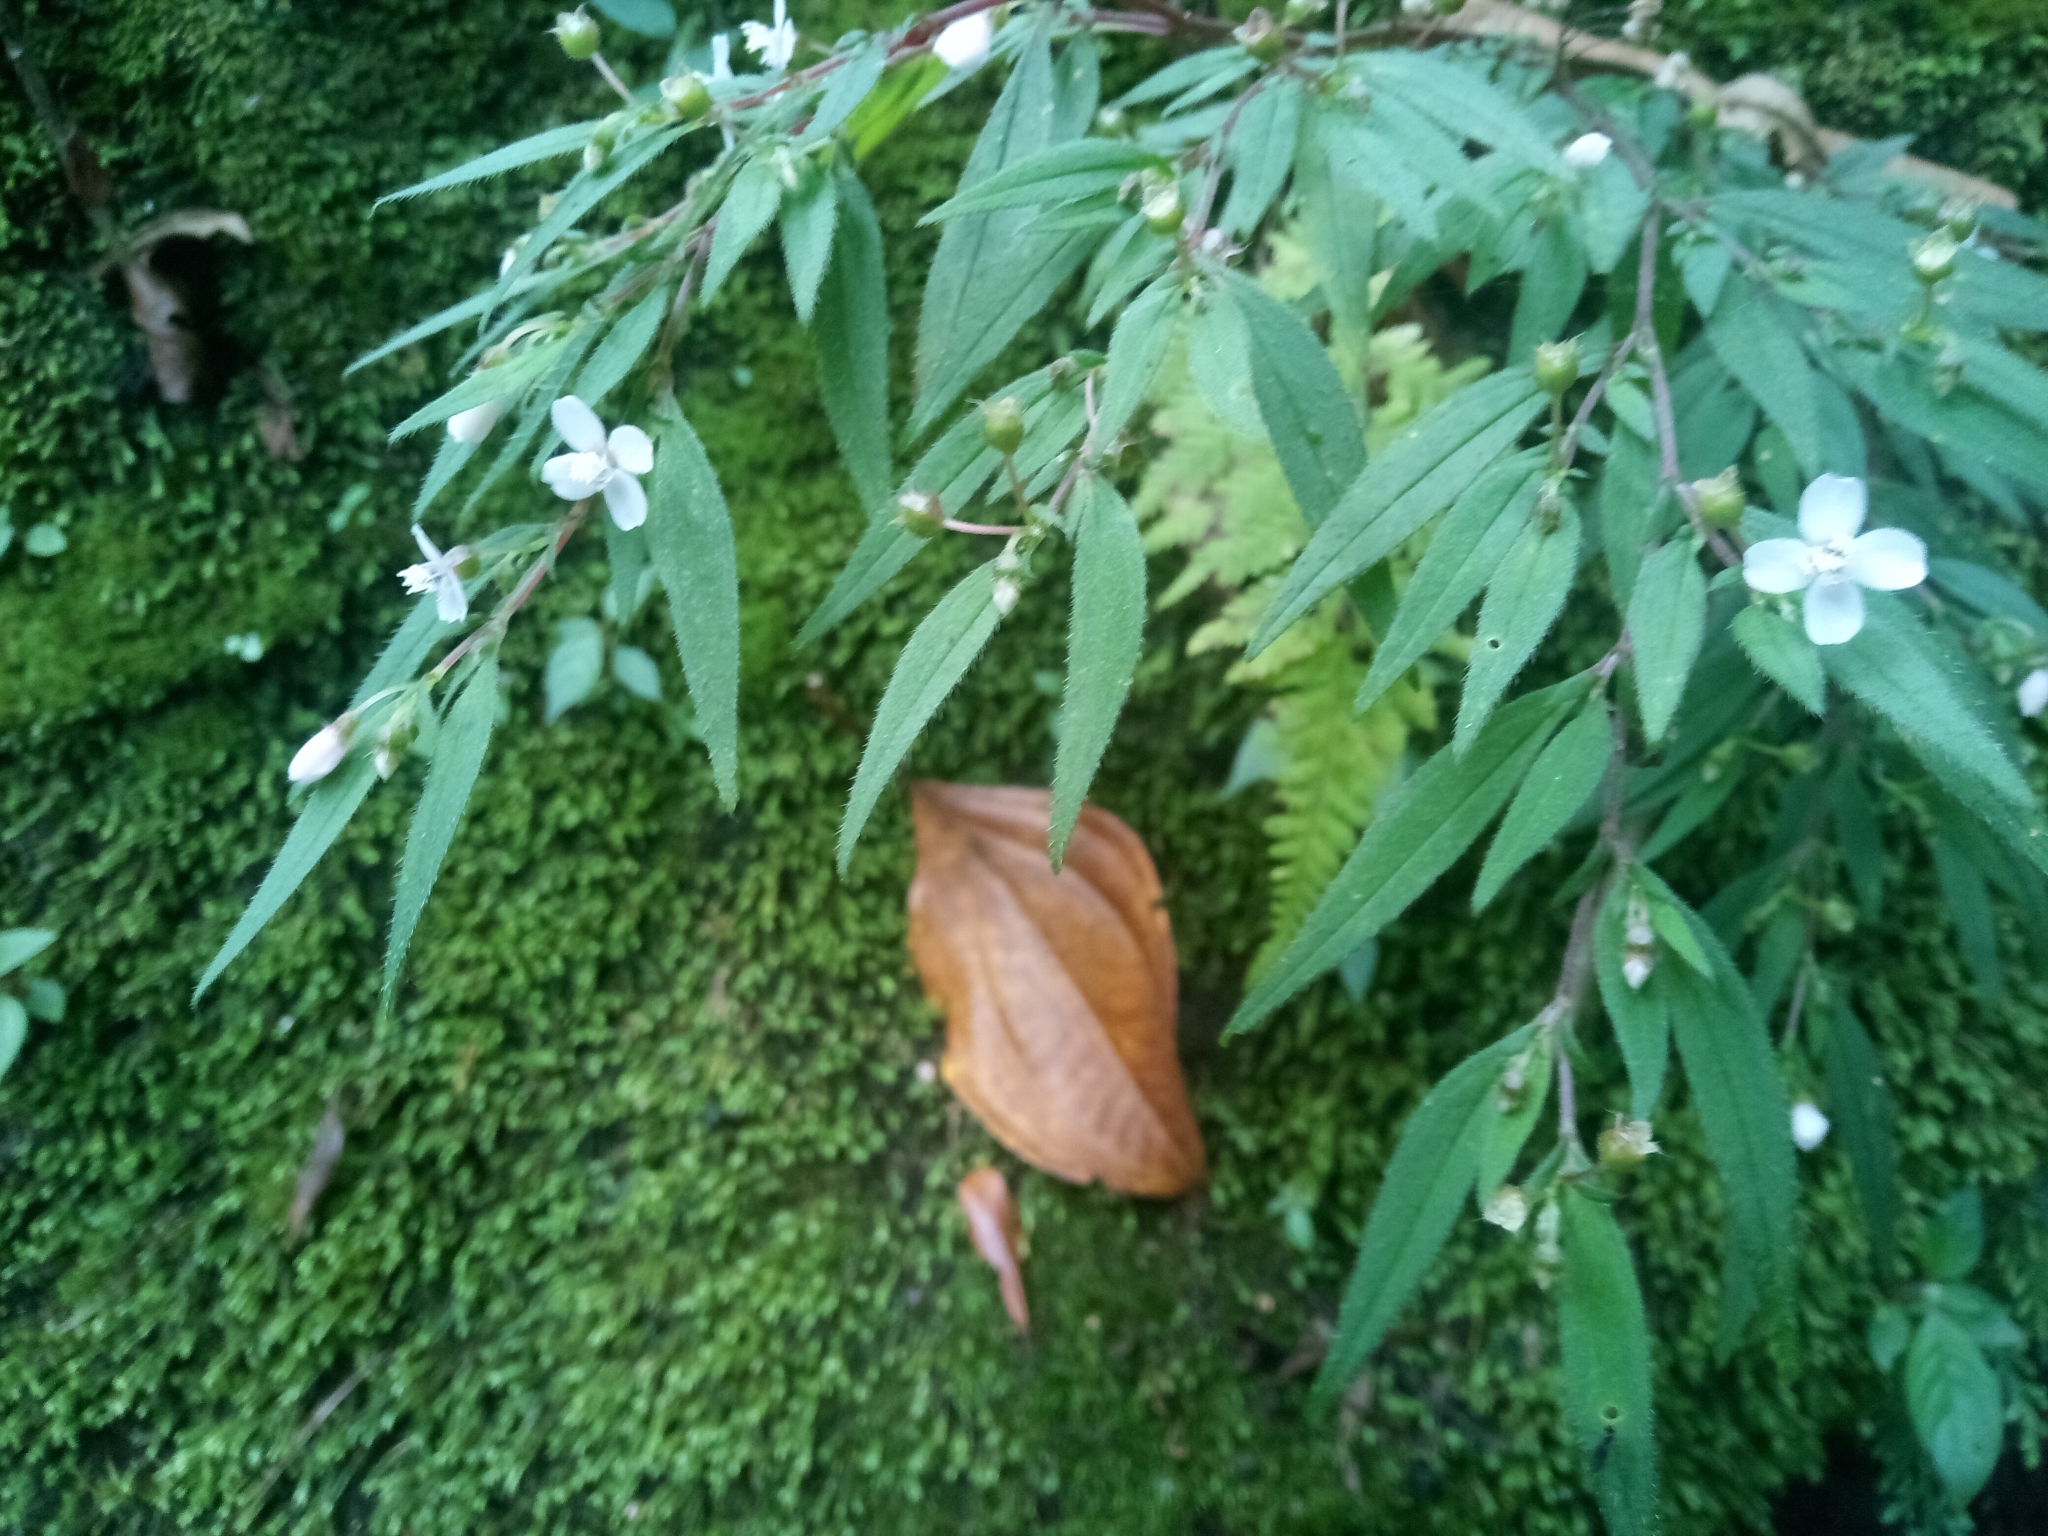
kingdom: Plantae
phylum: Tracheophyta
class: Magnoliopsida
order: Myrtales
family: Melastomataceae
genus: Centradenia
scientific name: Centradenia inaequilateralis
